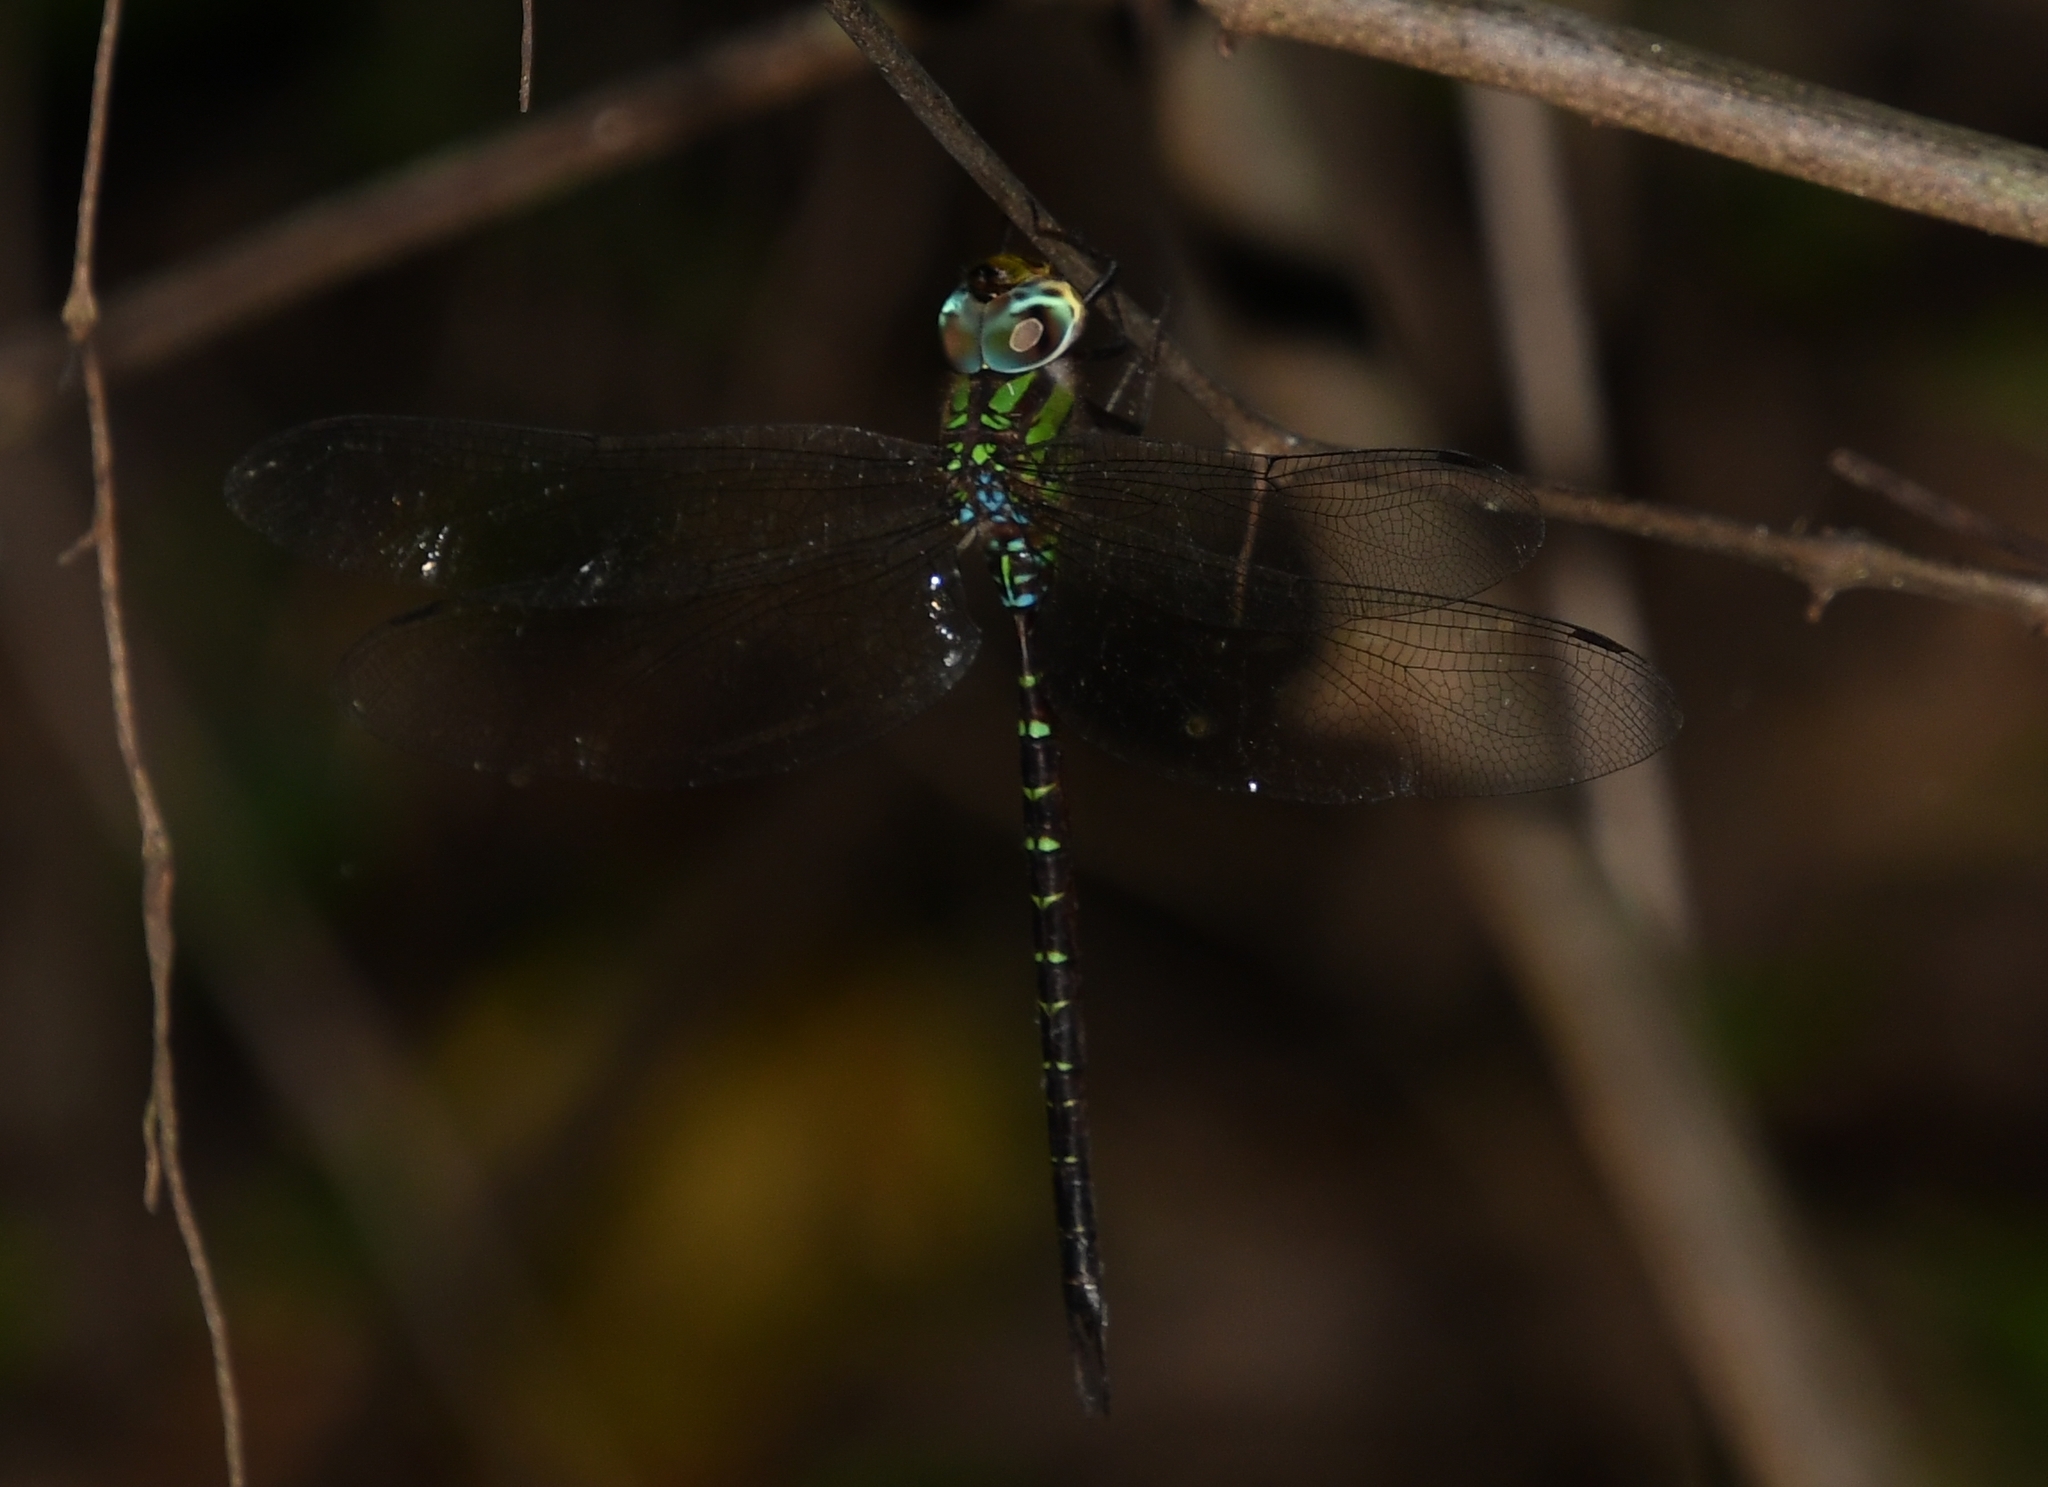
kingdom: Animalia
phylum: Arthropoda
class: Insecta
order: Odonata
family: Aeshnidae
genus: Triacanthagyna
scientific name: Triacanthagyna trifida
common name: Phantom darner
